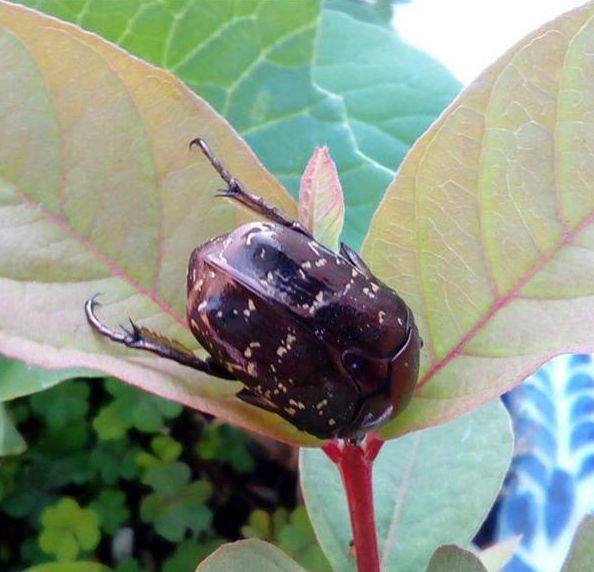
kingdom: Animalia
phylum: Arthropoda
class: Insecta
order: Coleoptera
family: Scarabaeidae
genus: Protaetia
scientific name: Protaetia orientalis
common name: Oriental flower beetle
